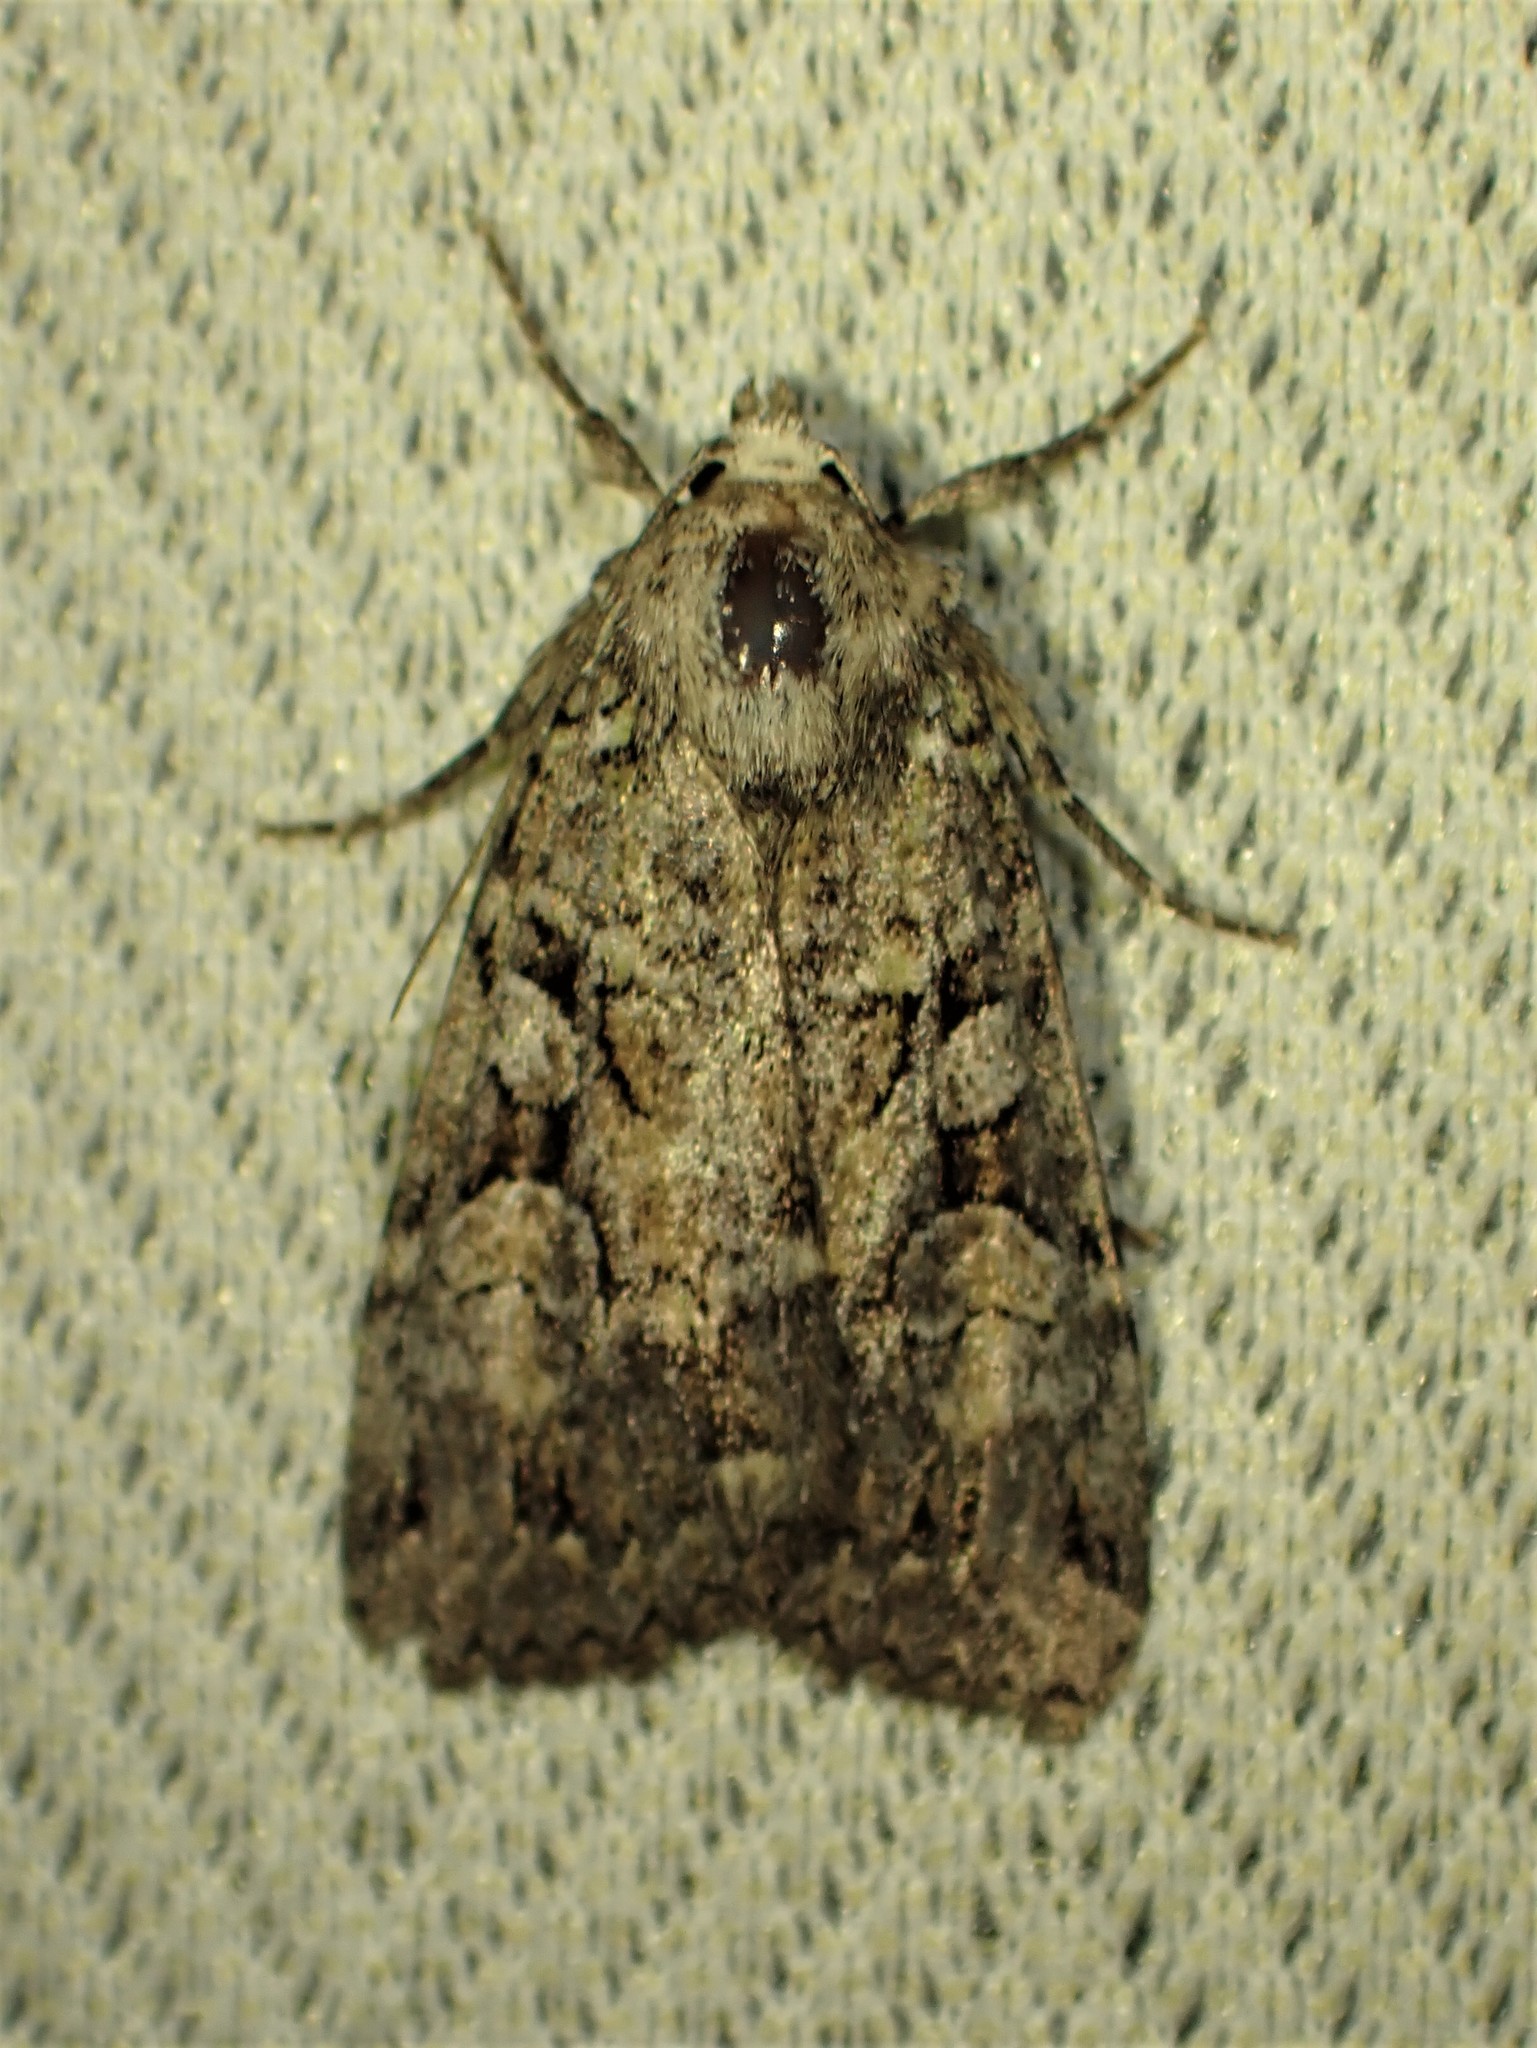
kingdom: Animalia
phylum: Arthropoda
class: Insecta
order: Lepidoptera
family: Noctuidae
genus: Anaplectoides
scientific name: Anaplectoides pressus
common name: Dappled dart
